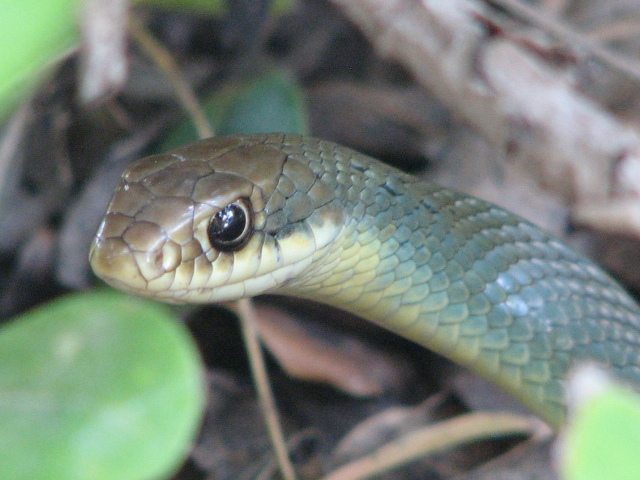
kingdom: Animalia
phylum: Chordata
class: Squamata
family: Colubridae
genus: Coluber
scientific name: Coluber constrictor
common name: Eastern racer
